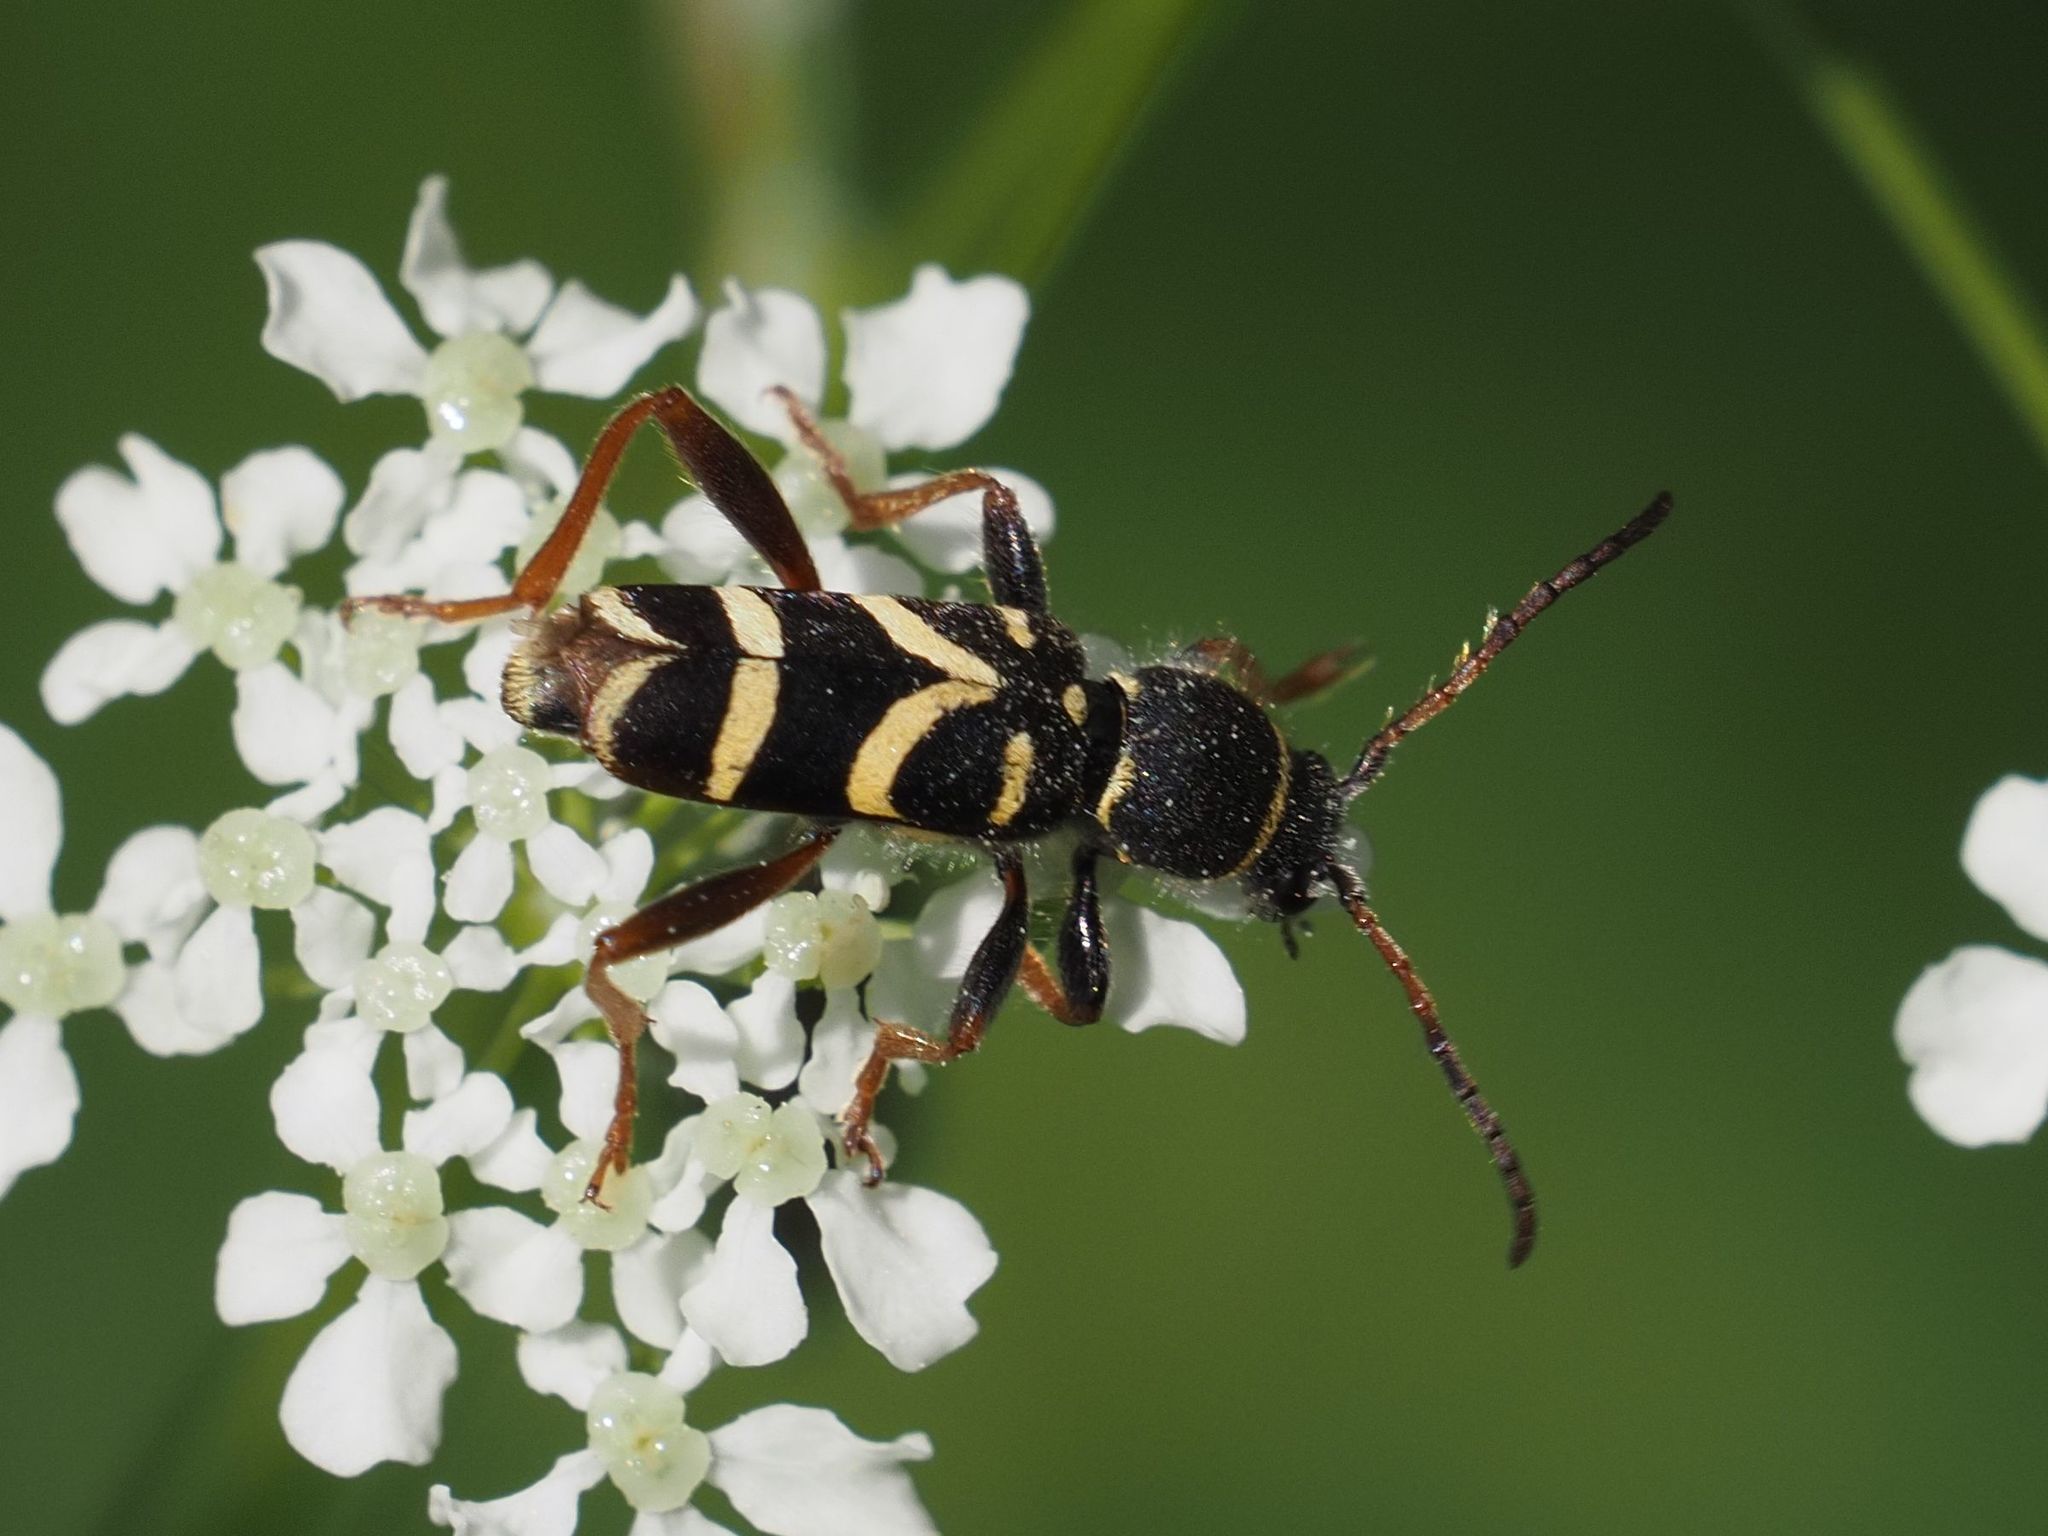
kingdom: Animalia
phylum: Arthropoda
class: Insecta
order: Coleoptera
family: Cerambycidae
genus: Clytus
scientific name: Clytus arietis
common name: Wasp beetle
